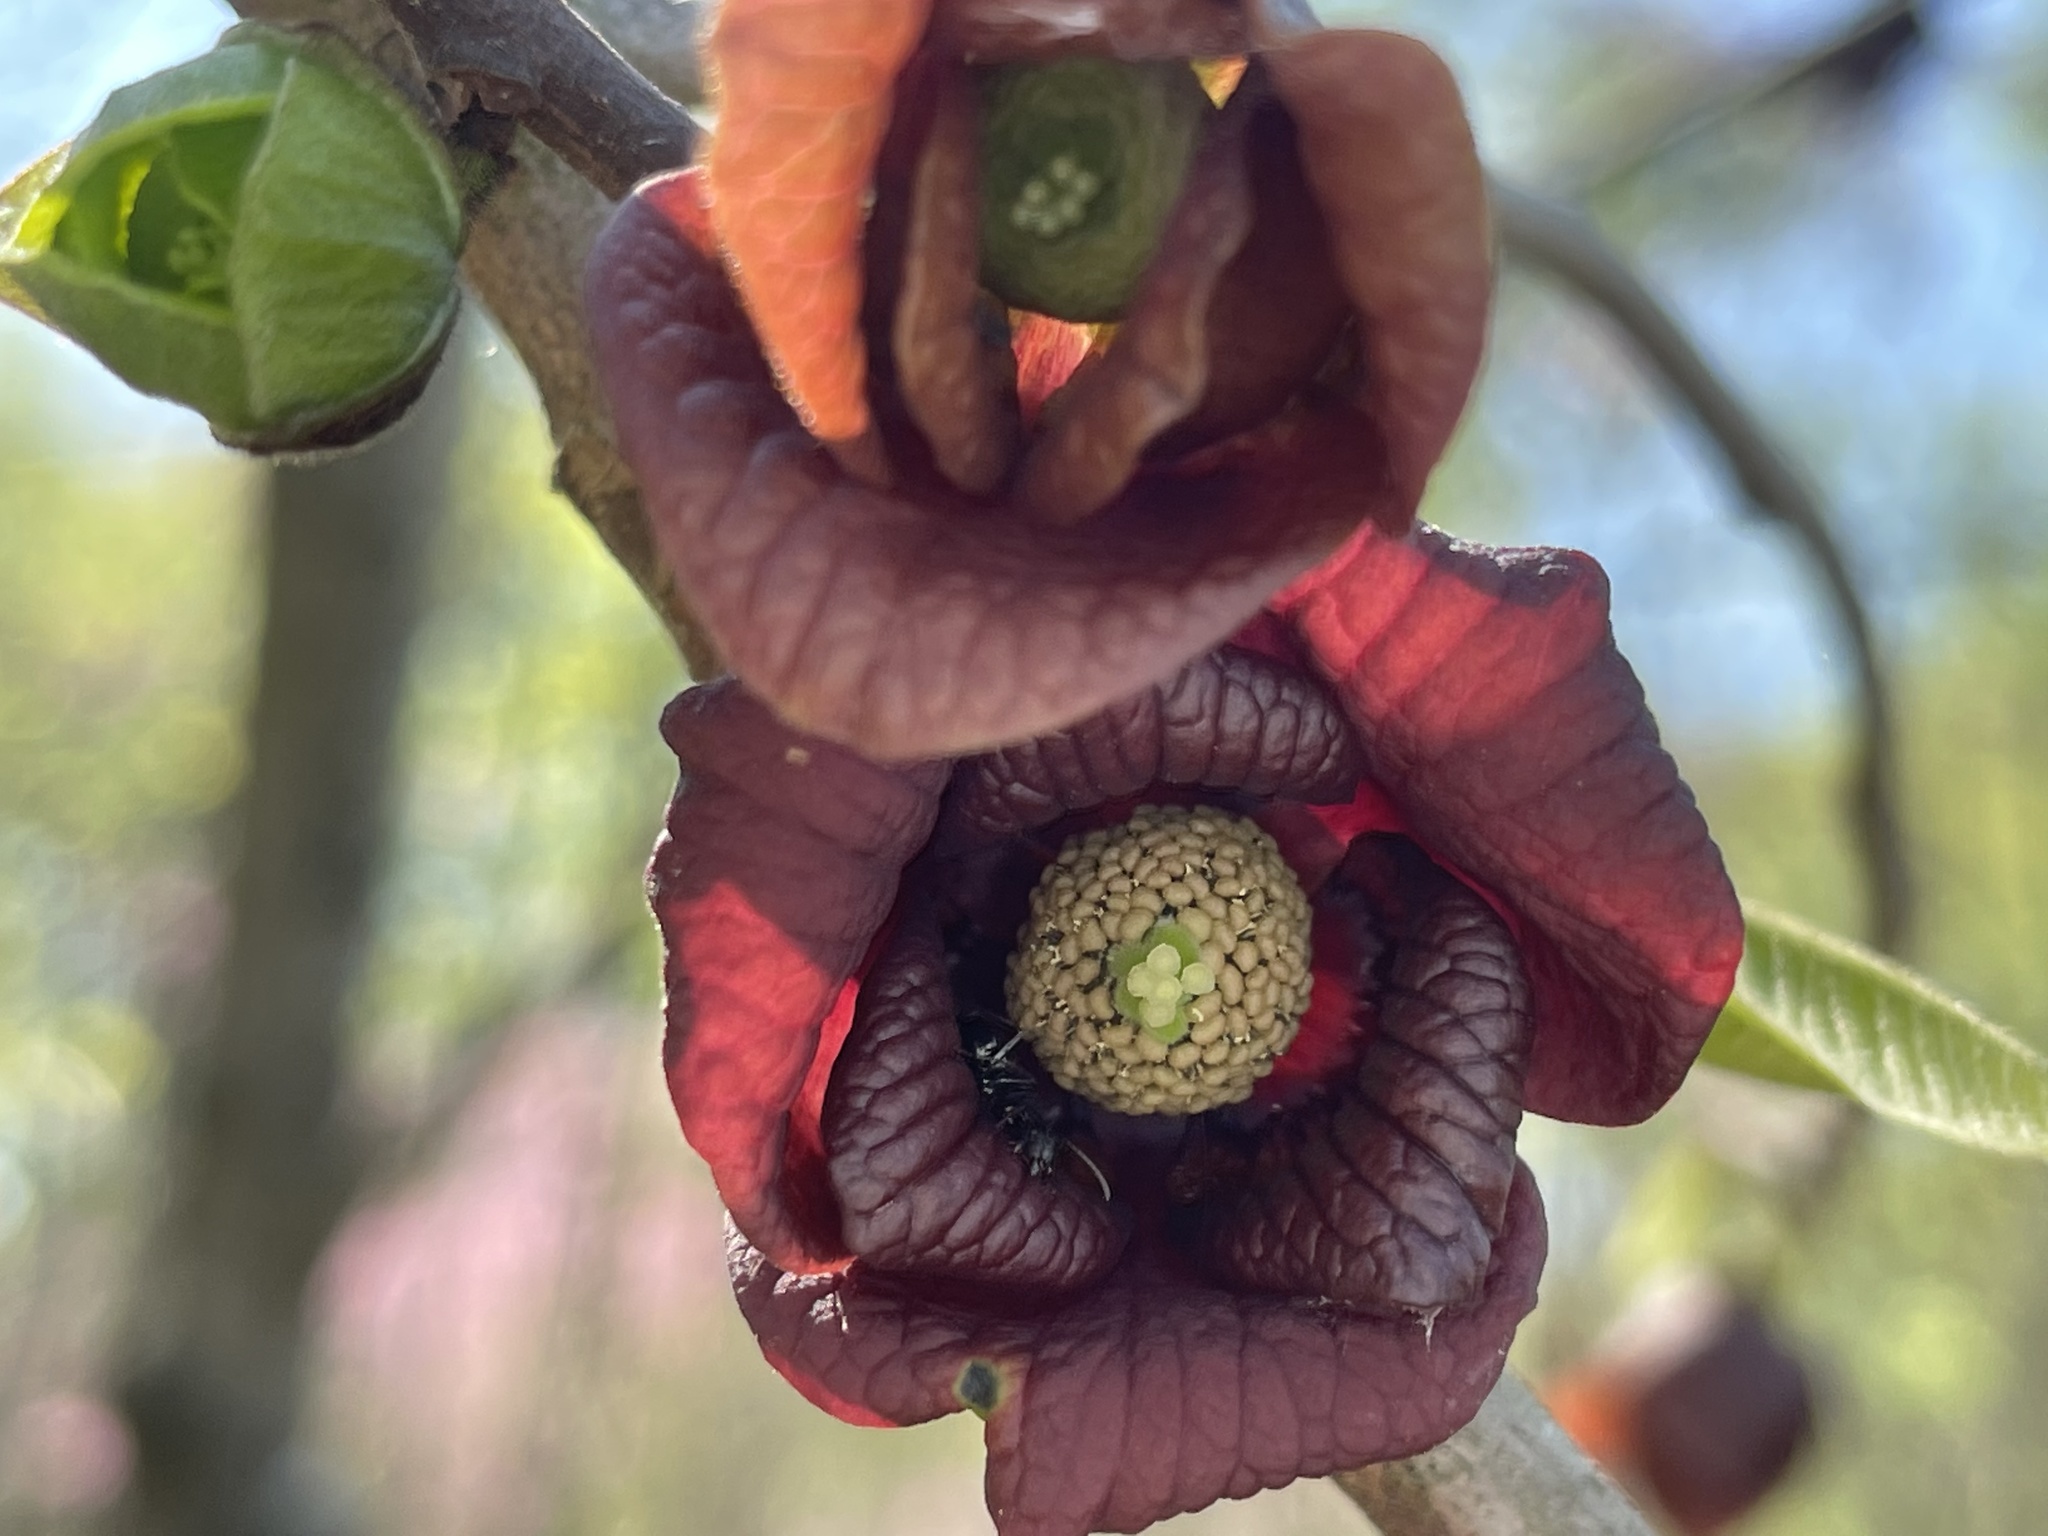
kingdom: Plantae
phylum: Tracheophyta
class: Magnoliopsida
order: Magnoliales
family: Annonaceae
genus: Asimina
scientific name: Asimina triloba
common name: Dog-banana
